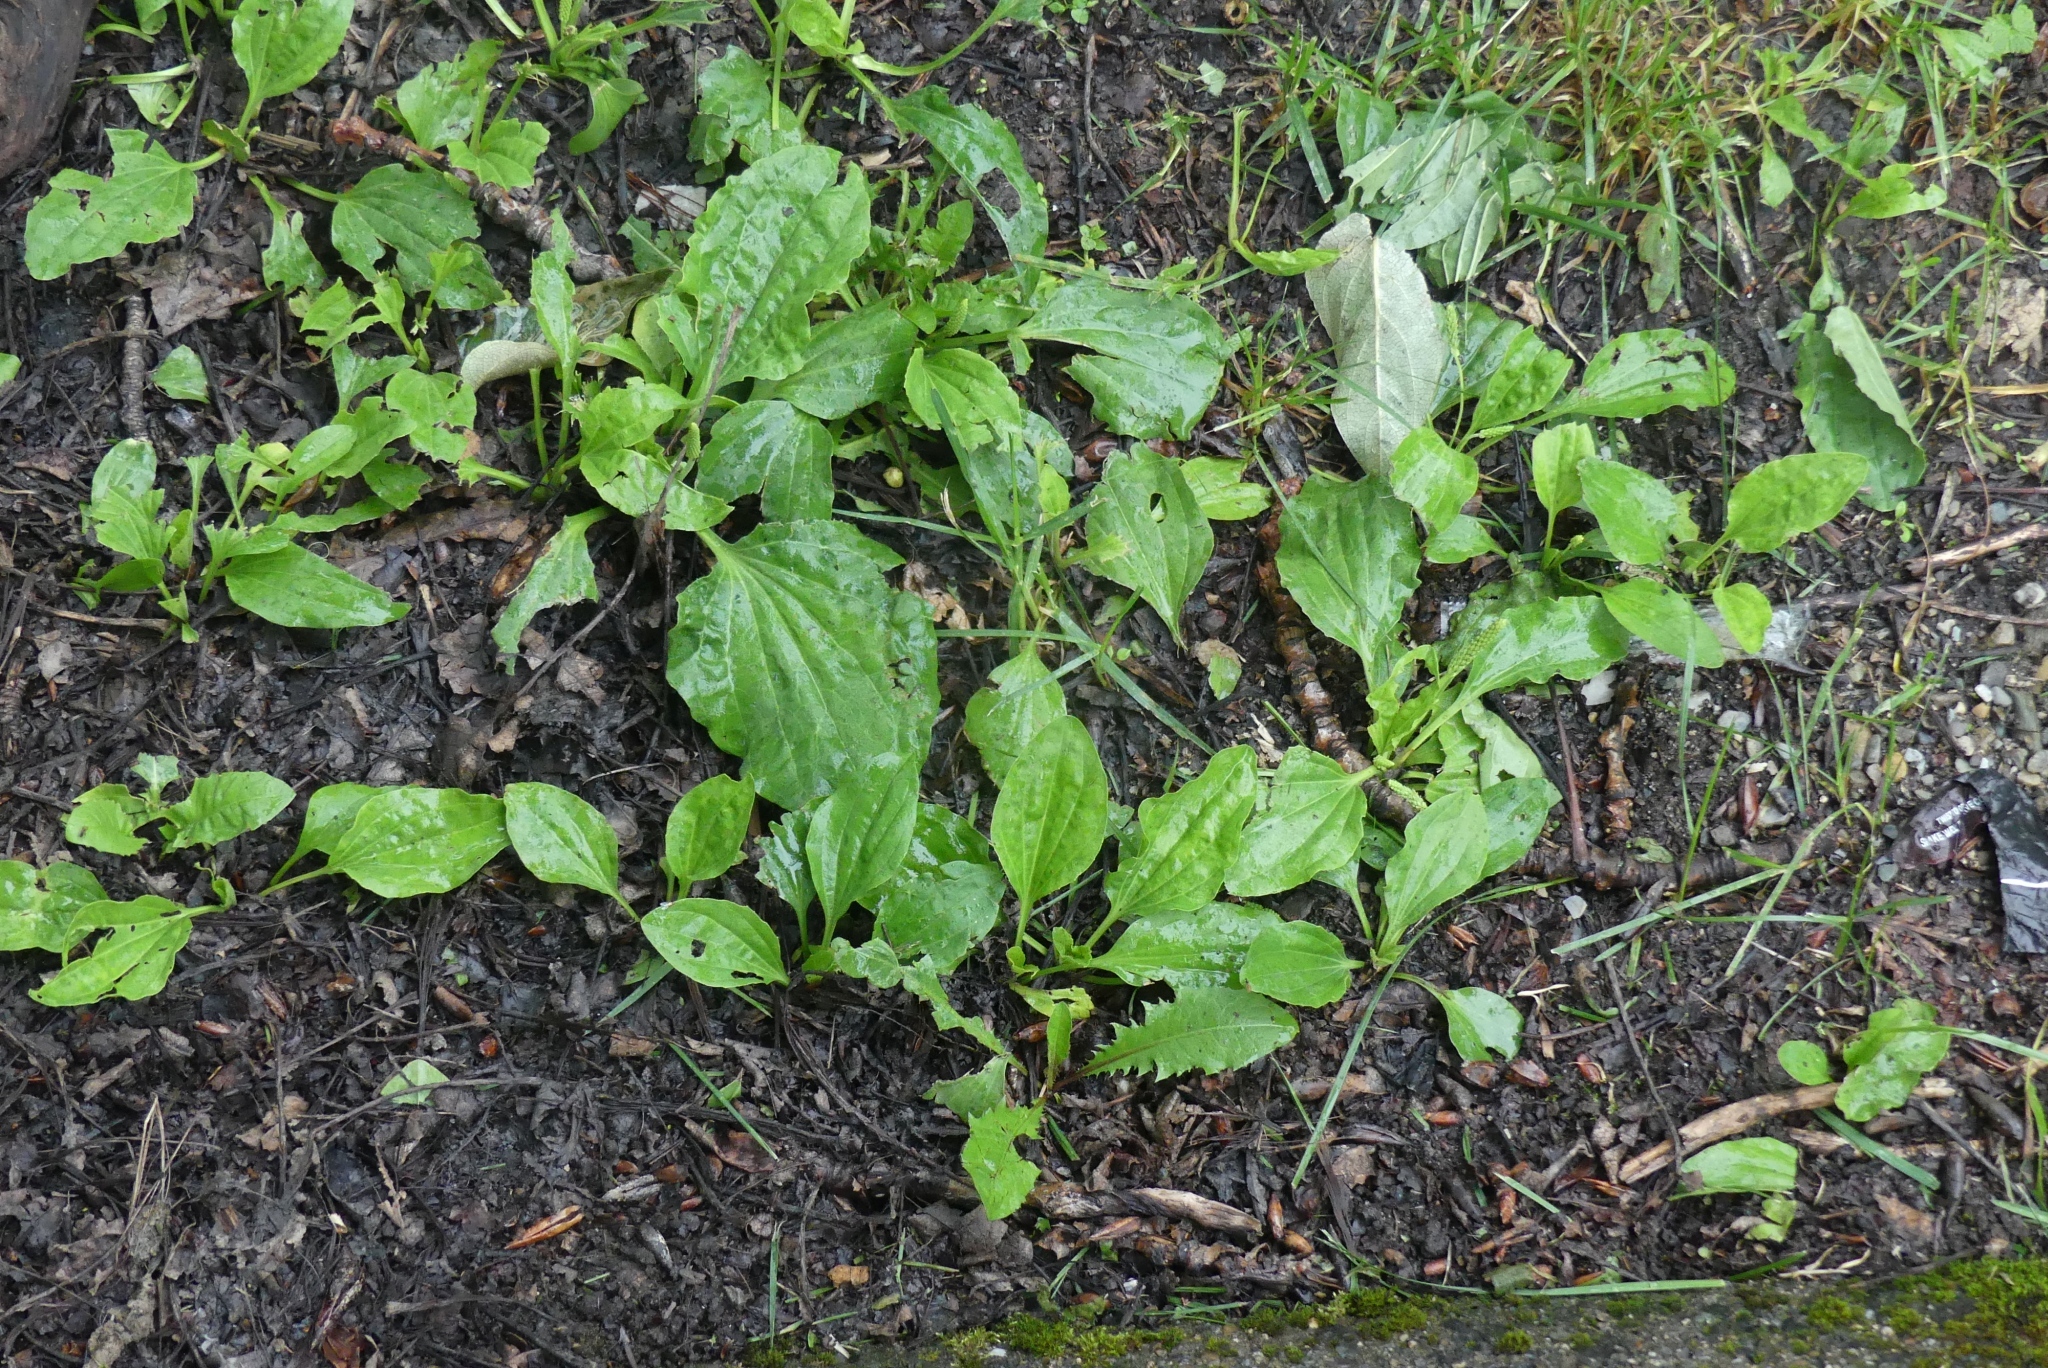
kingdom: Plantae
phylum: Tracheophyta
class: Magnoliopsida
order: Lamiales
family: Plantaginaceae
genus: Plantago
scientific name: Plantago major
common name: Common plantain
